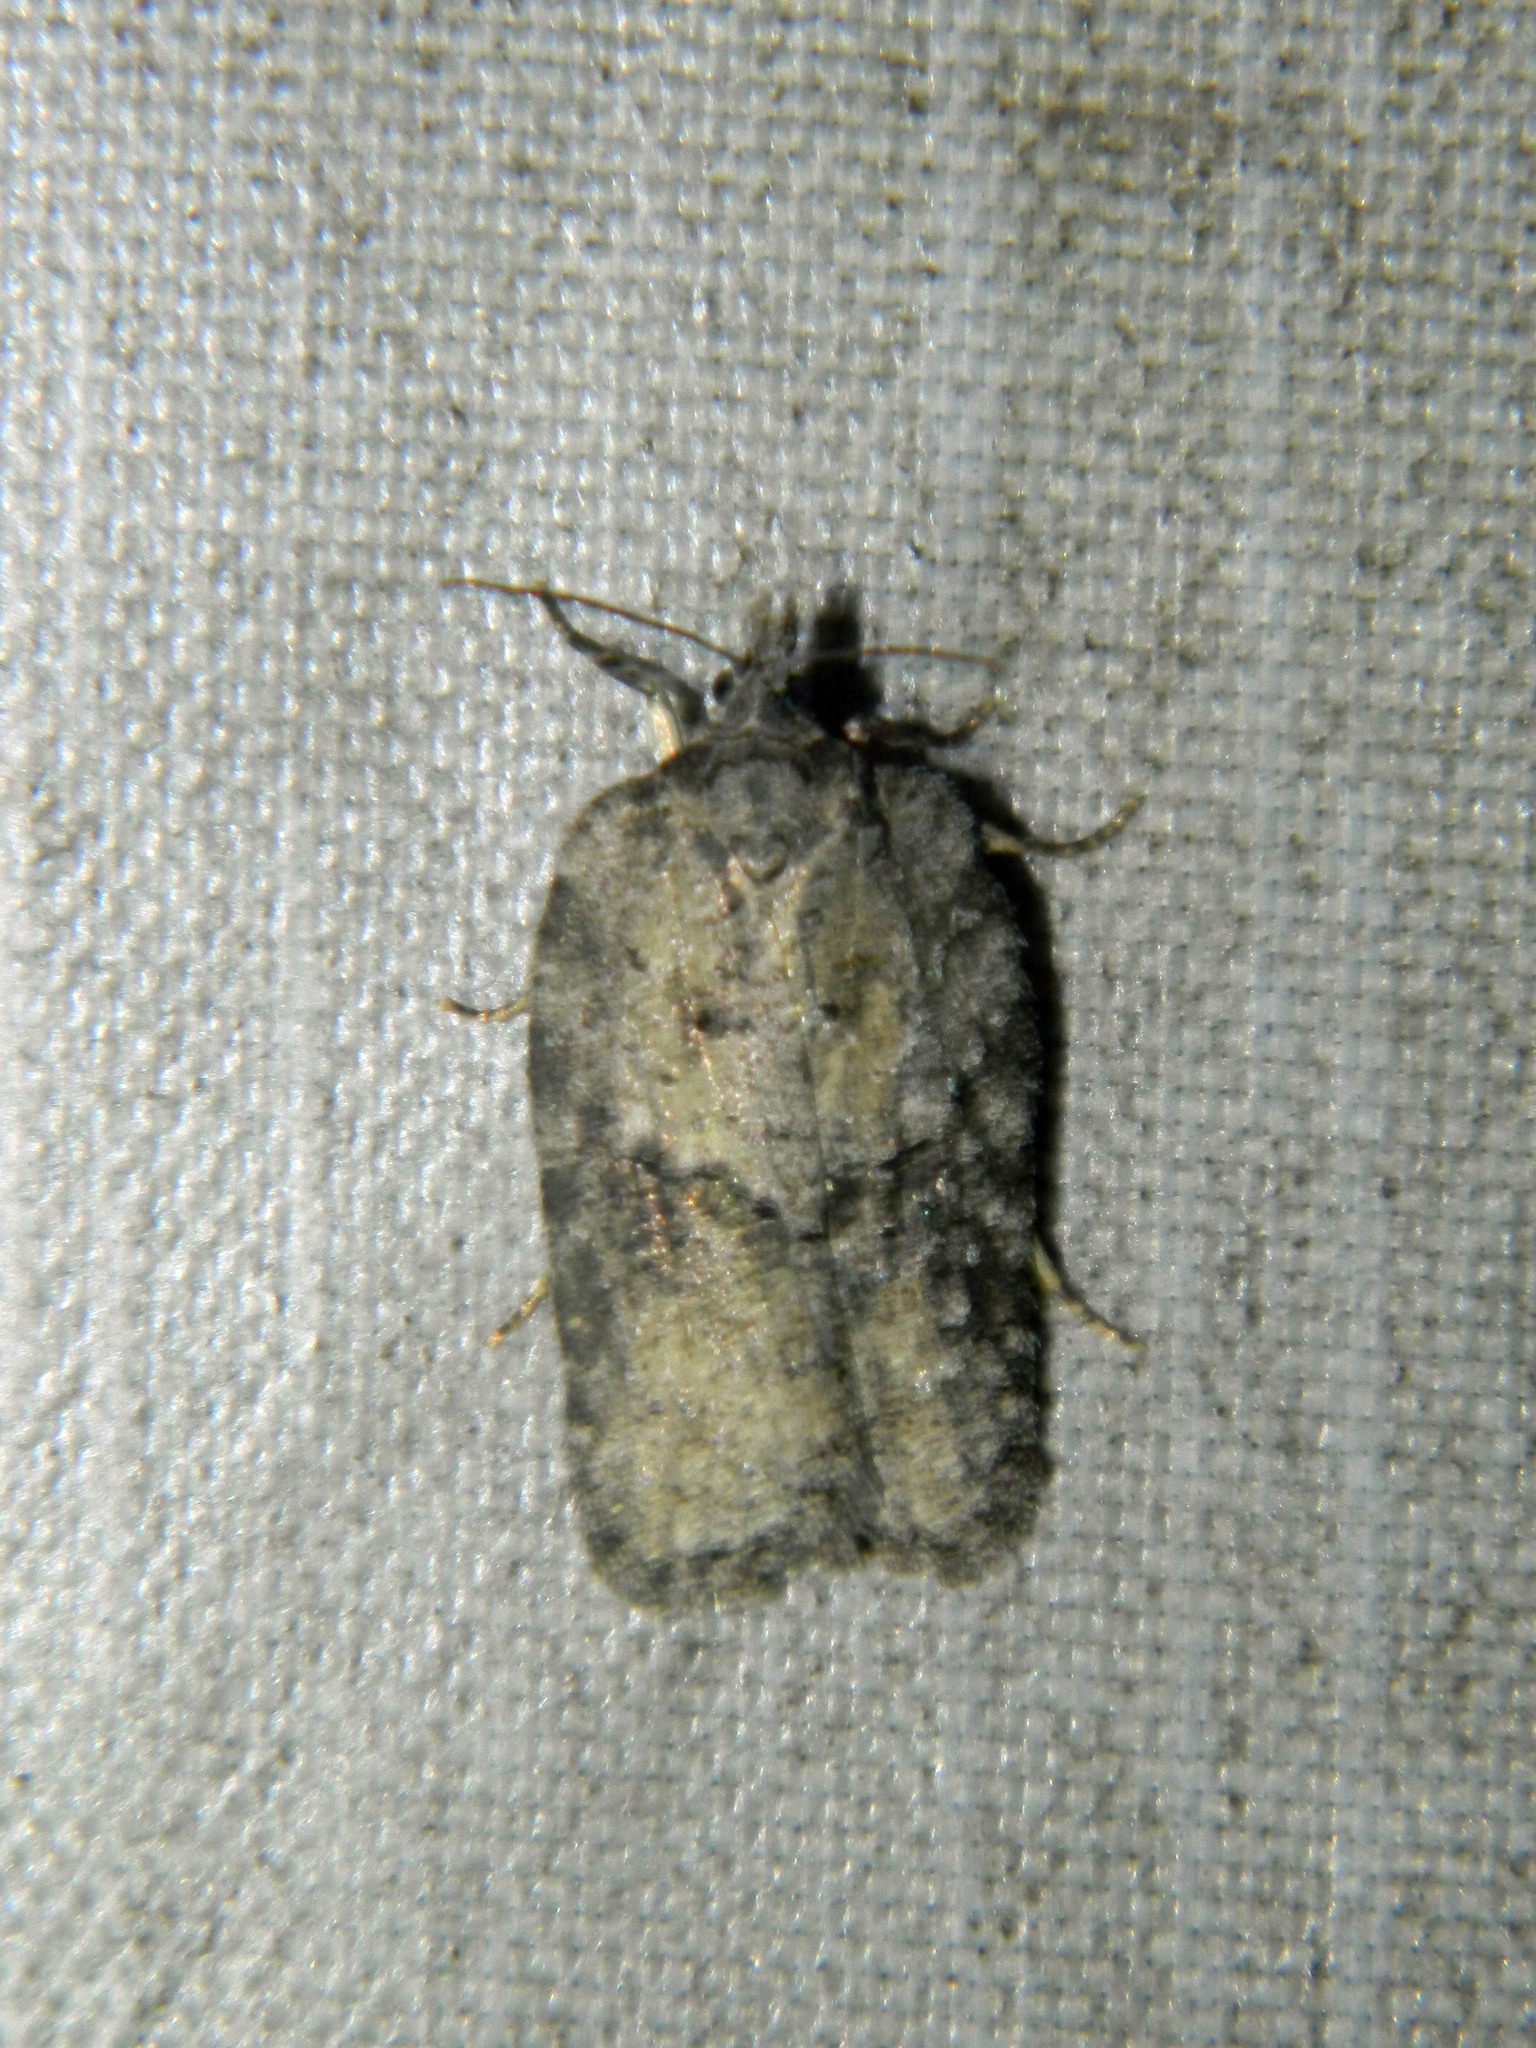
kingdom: Animalia
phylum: Arthropoda
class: Insecta
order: Lepidoptera
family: Tortricidae
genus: Acleris
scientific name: Acleris nigrolinea
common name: Black-lined acleris
